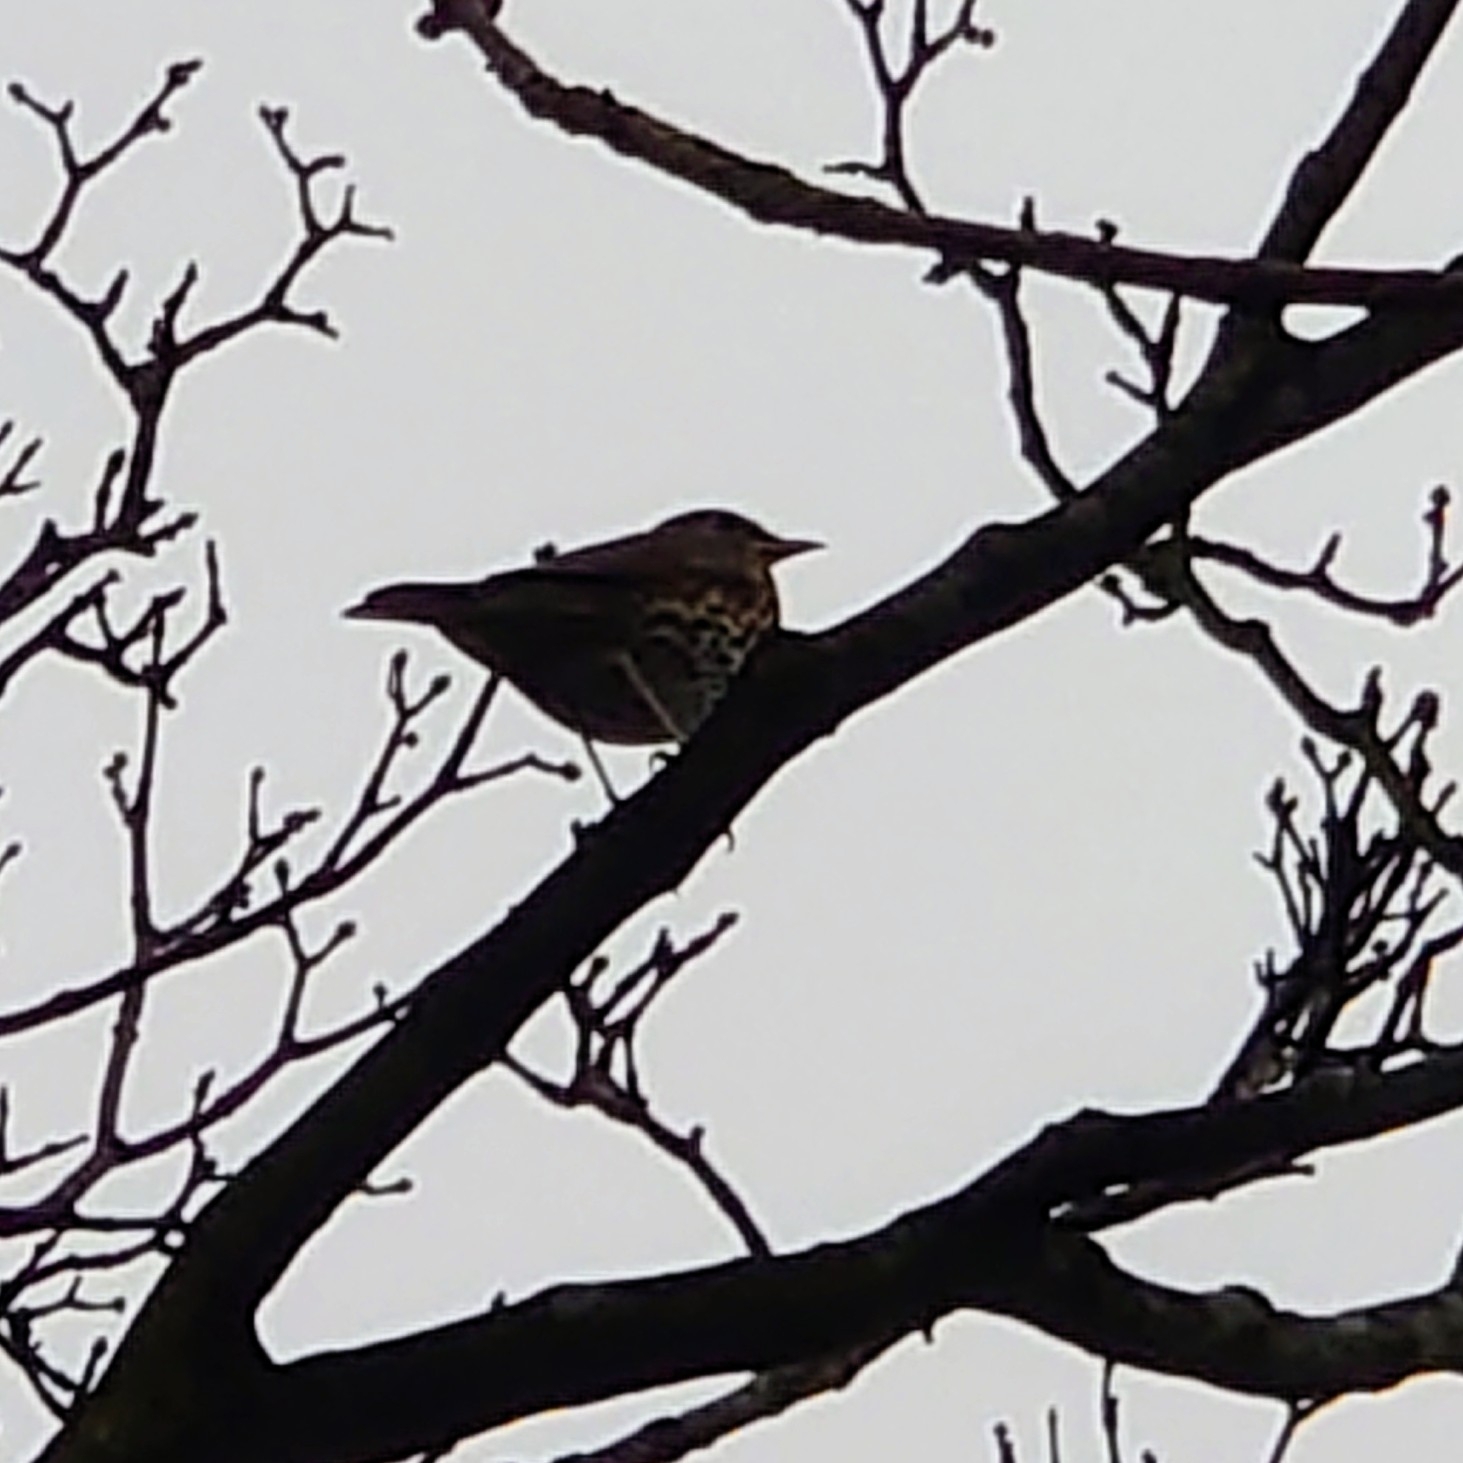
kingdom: Animalia
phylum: Chordata
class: Aves
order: Passeriformes
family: Turdidae
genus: Turdus
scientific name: Turdus philomelos
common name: Song thrush
